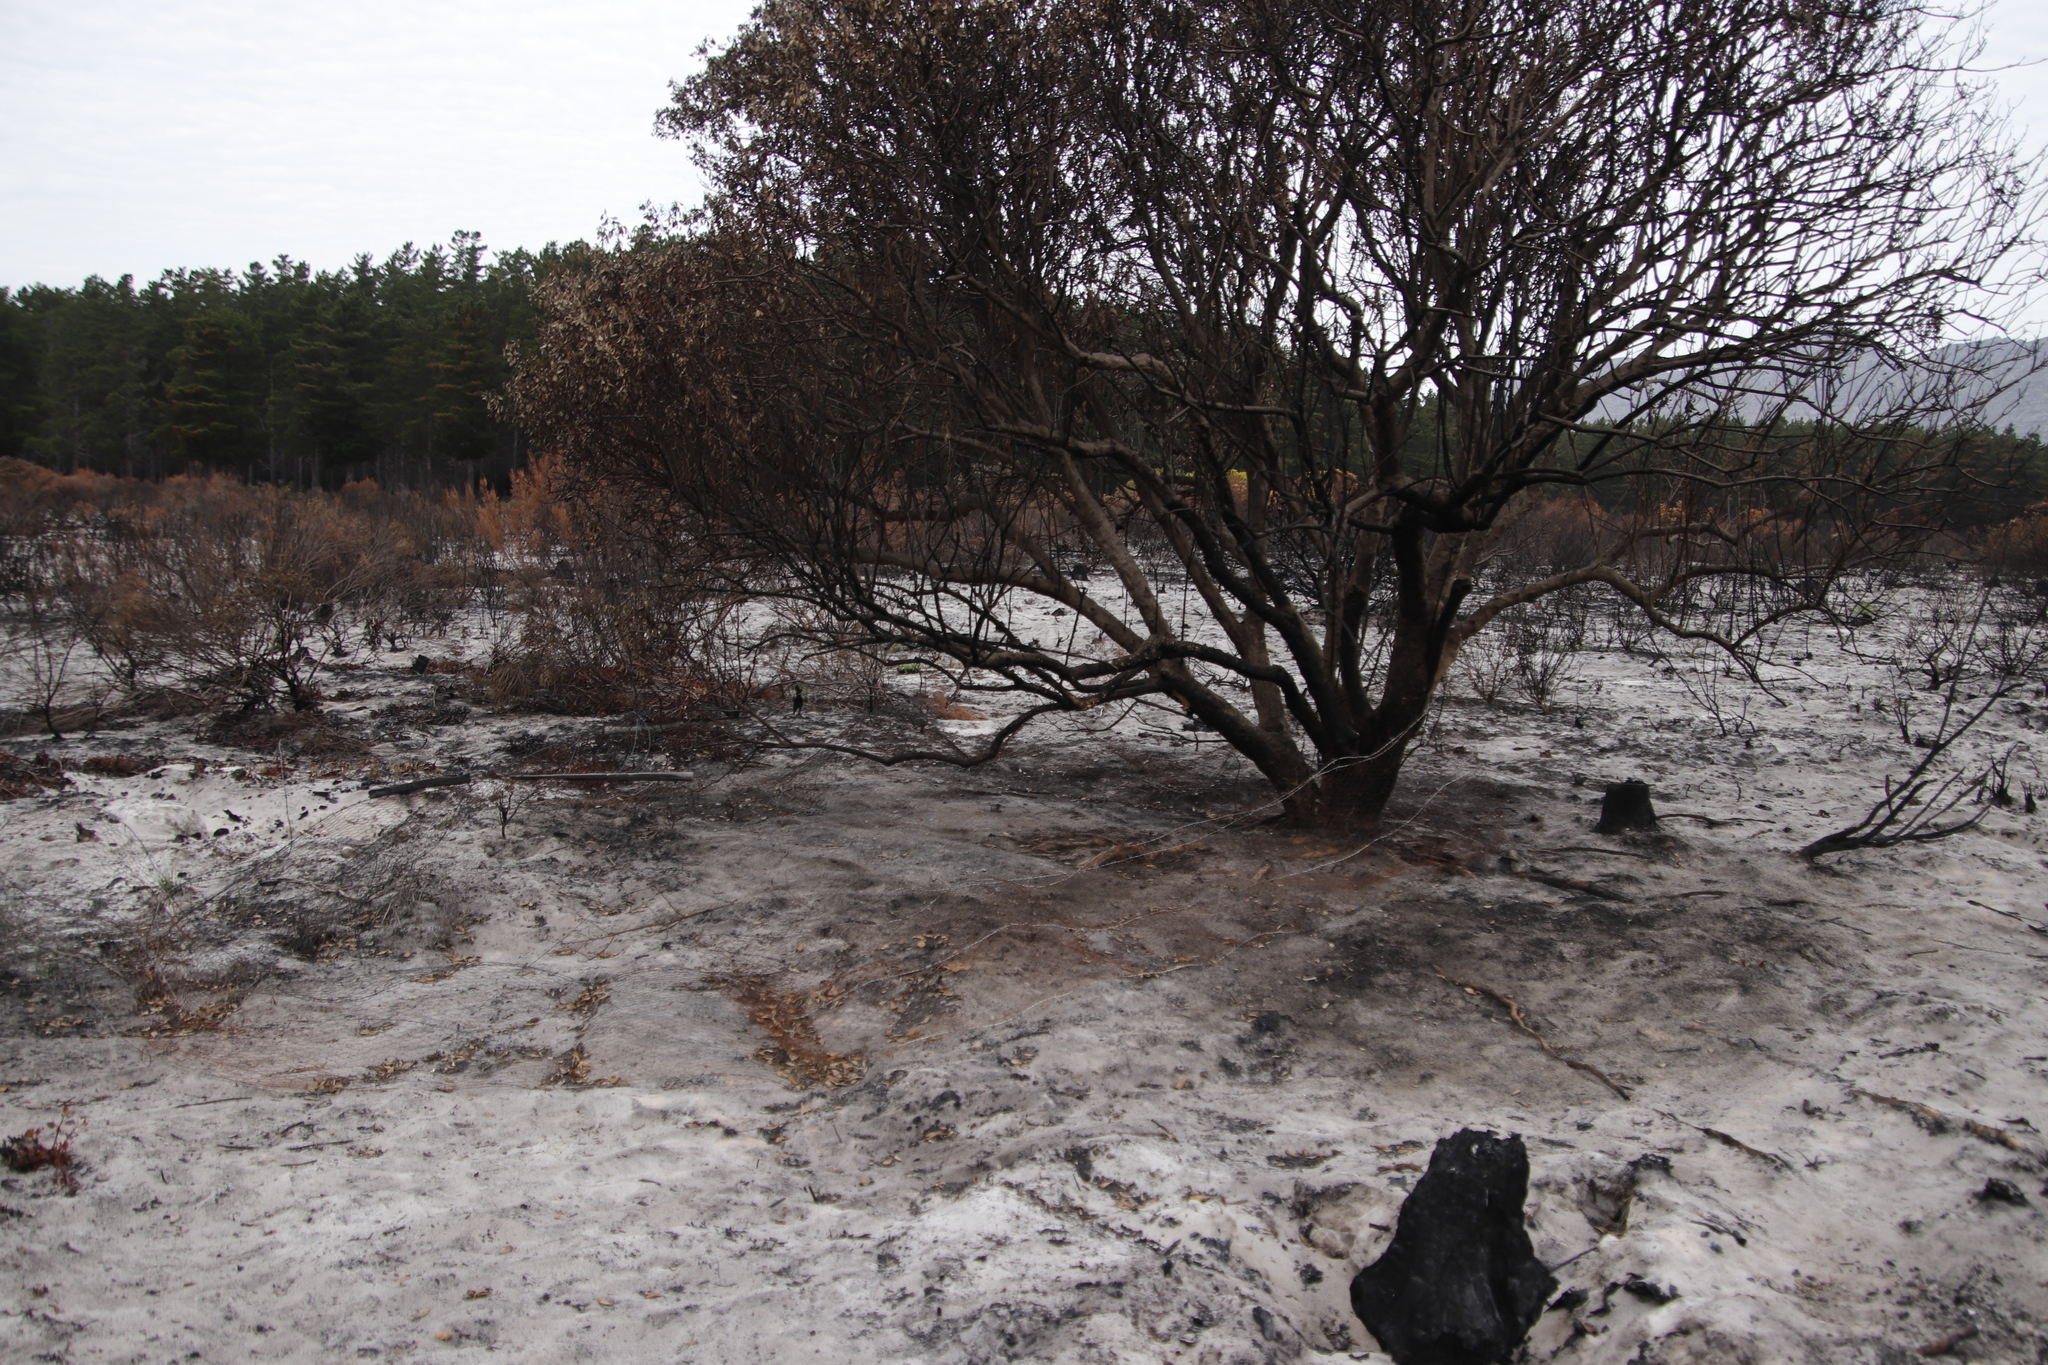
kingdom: Plantae
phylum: Tracheophyta
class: Magnoliopsida
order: Asterales
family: Asteraceae
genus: Osteospermum
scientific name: Osteospermum moniliferum
